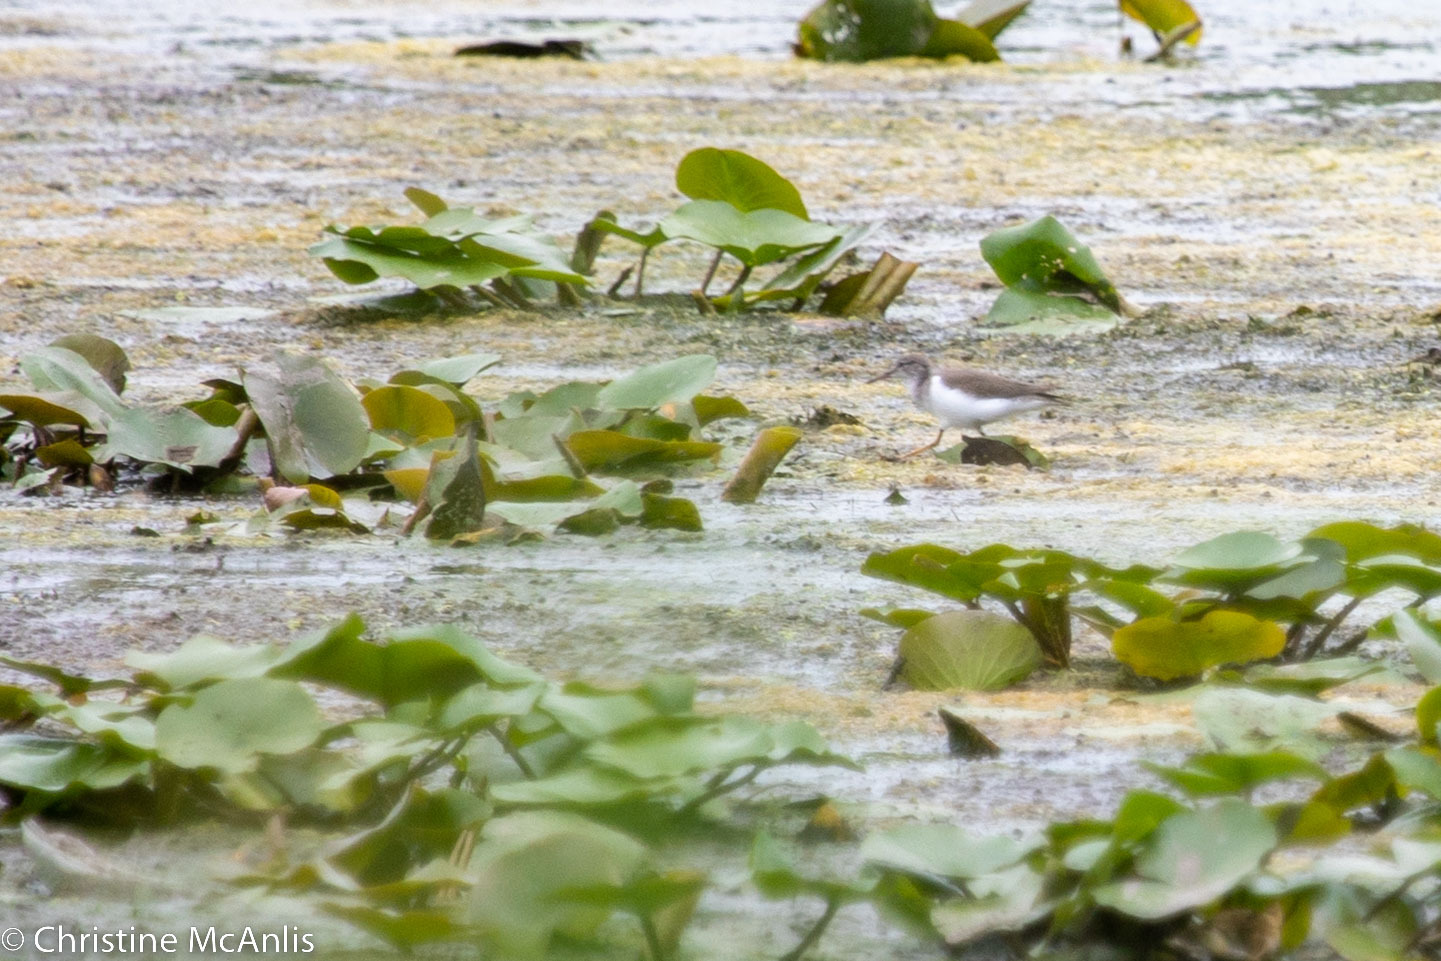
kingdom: Animalia
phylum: Chordata
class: Aves
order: Charadriiformes
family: Scolopacidae
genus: Actitis
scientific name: Actitis macularius
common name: Spotted sandpiper
